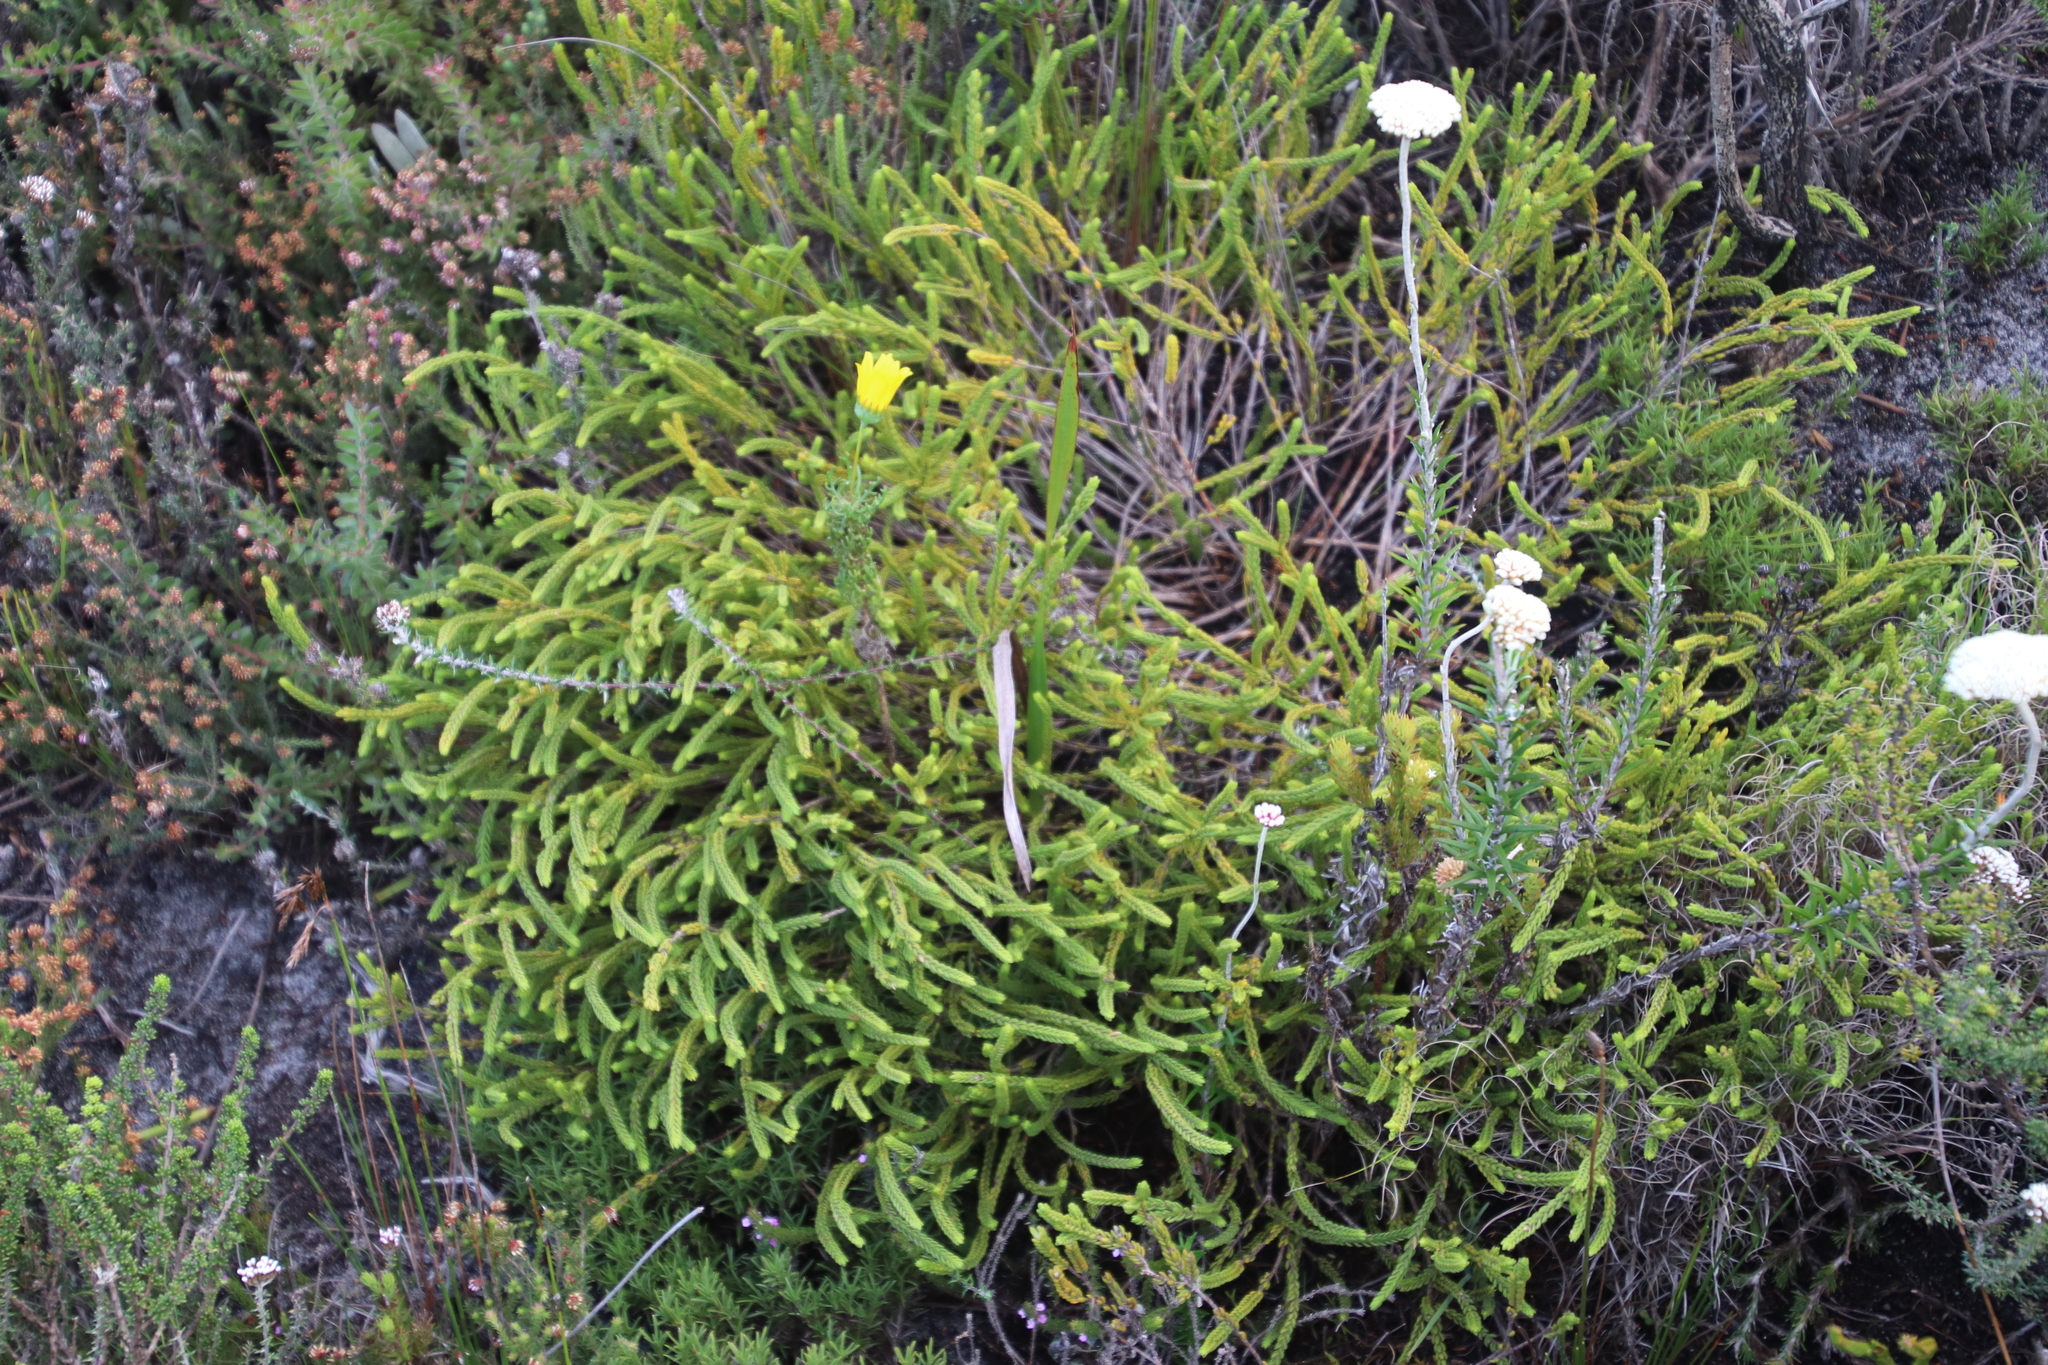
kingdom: Plantae
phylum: Tracheophyta
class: Magnoliopsida
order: Malvales
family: Thymelaeaceae
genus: Lachnaea
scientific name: Lachnaea grandiflora
